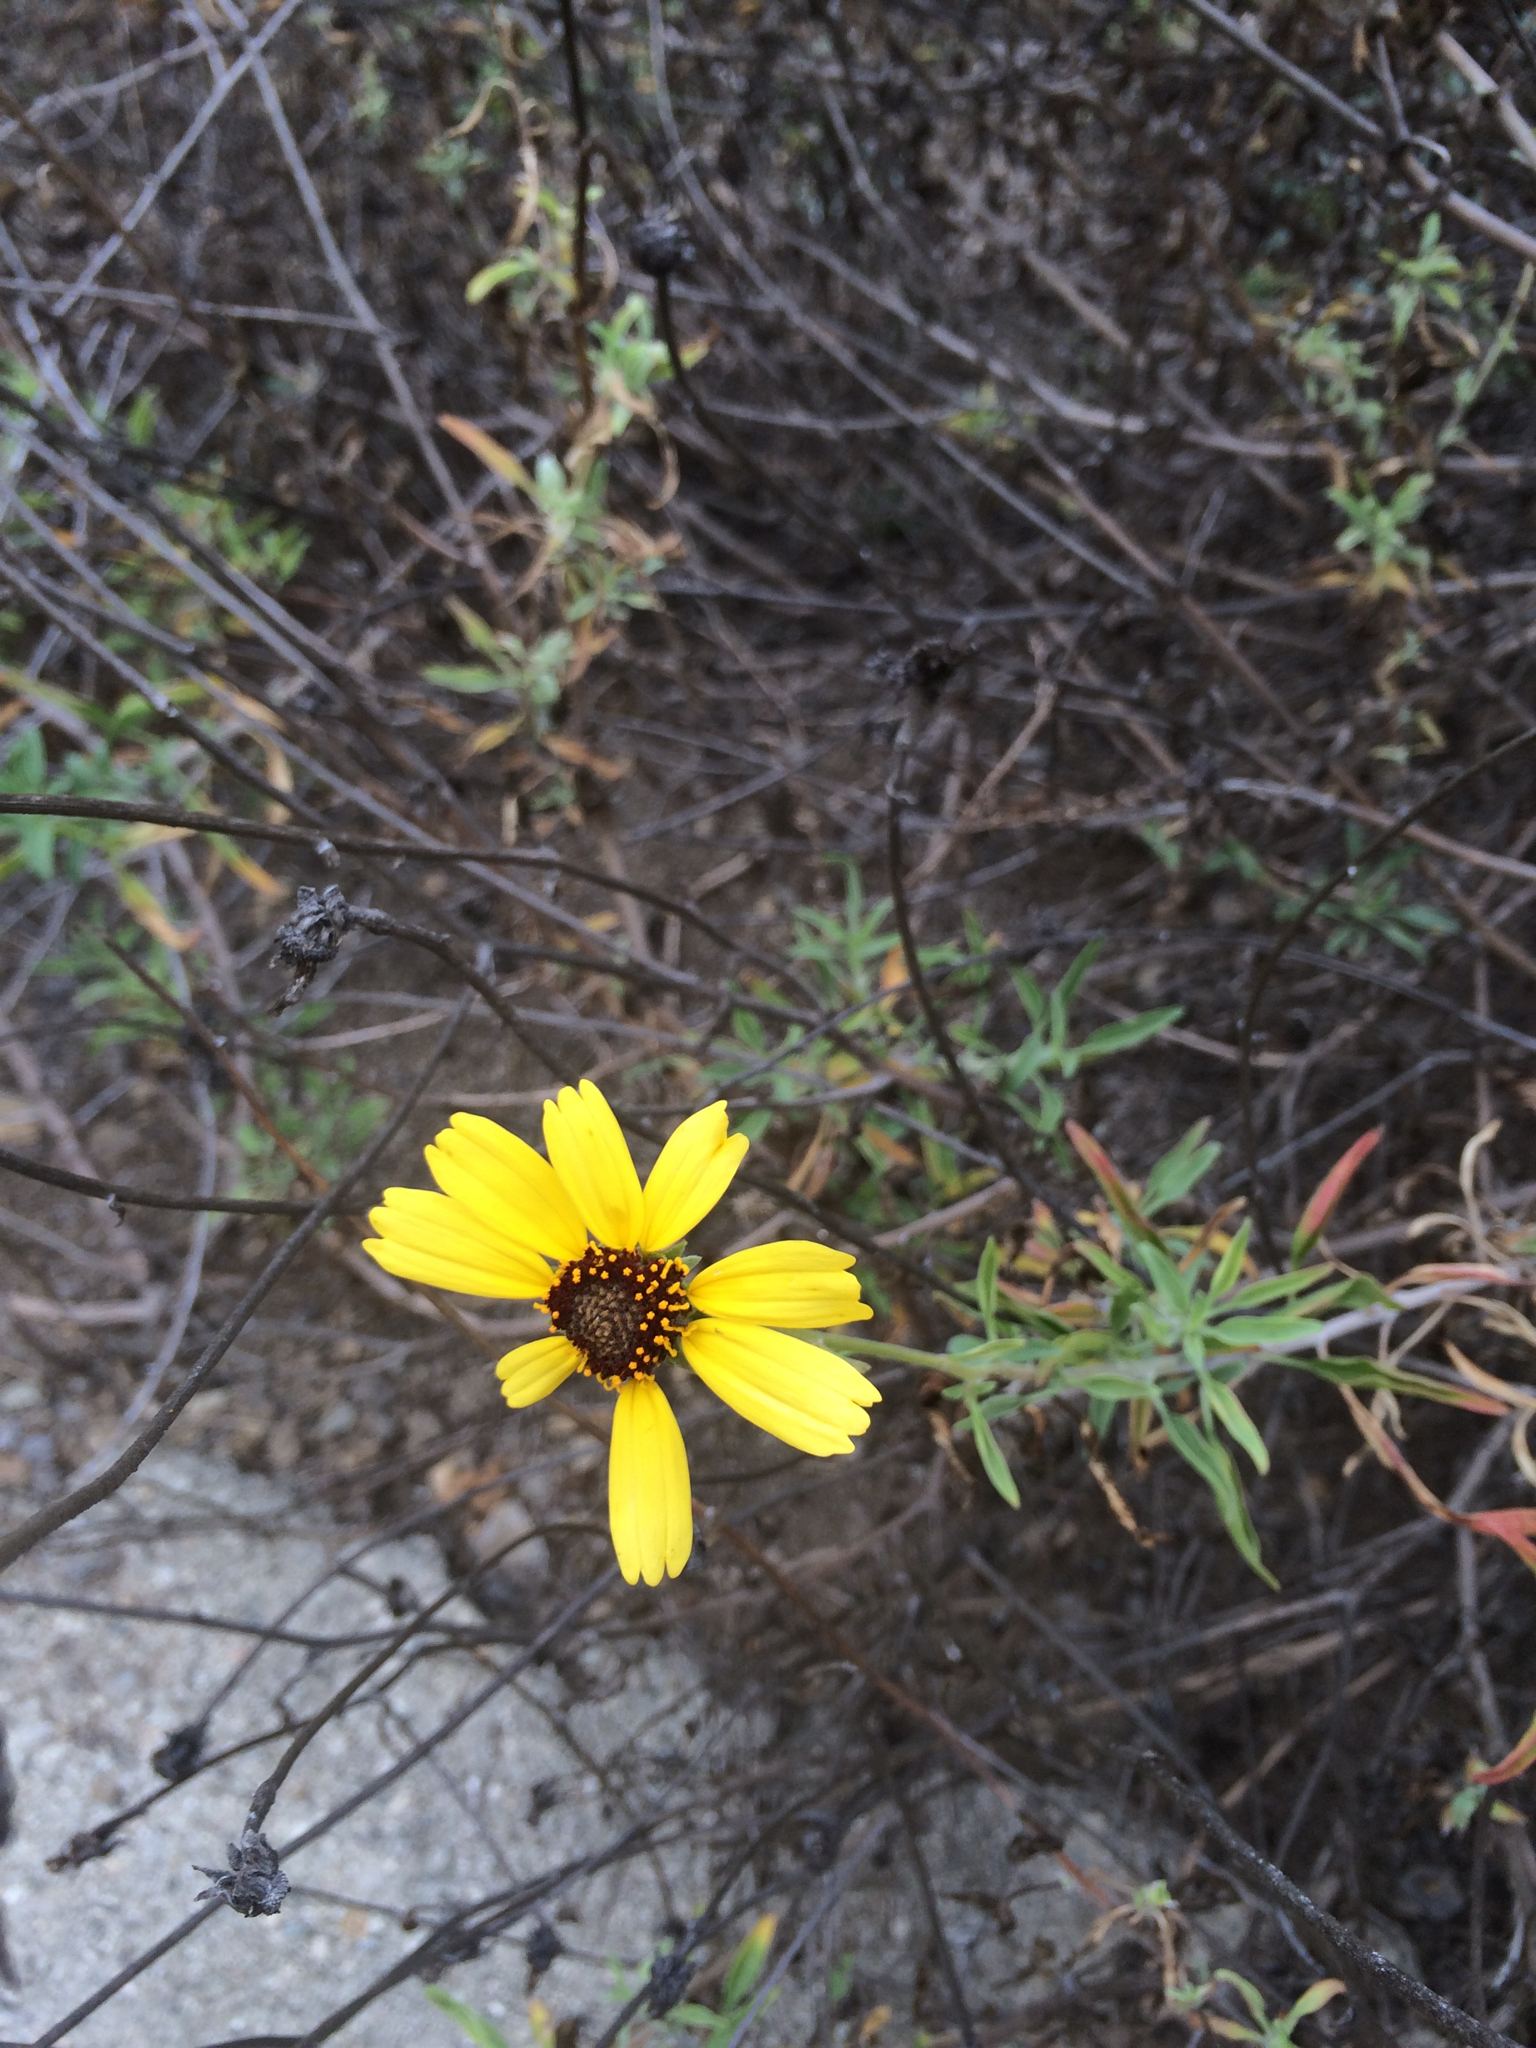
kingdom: Plantae
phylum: Tracheophyta
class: Magnoliopsida
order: Asterales
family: Asteraceae
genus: Encelia
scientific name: Encelia californica
